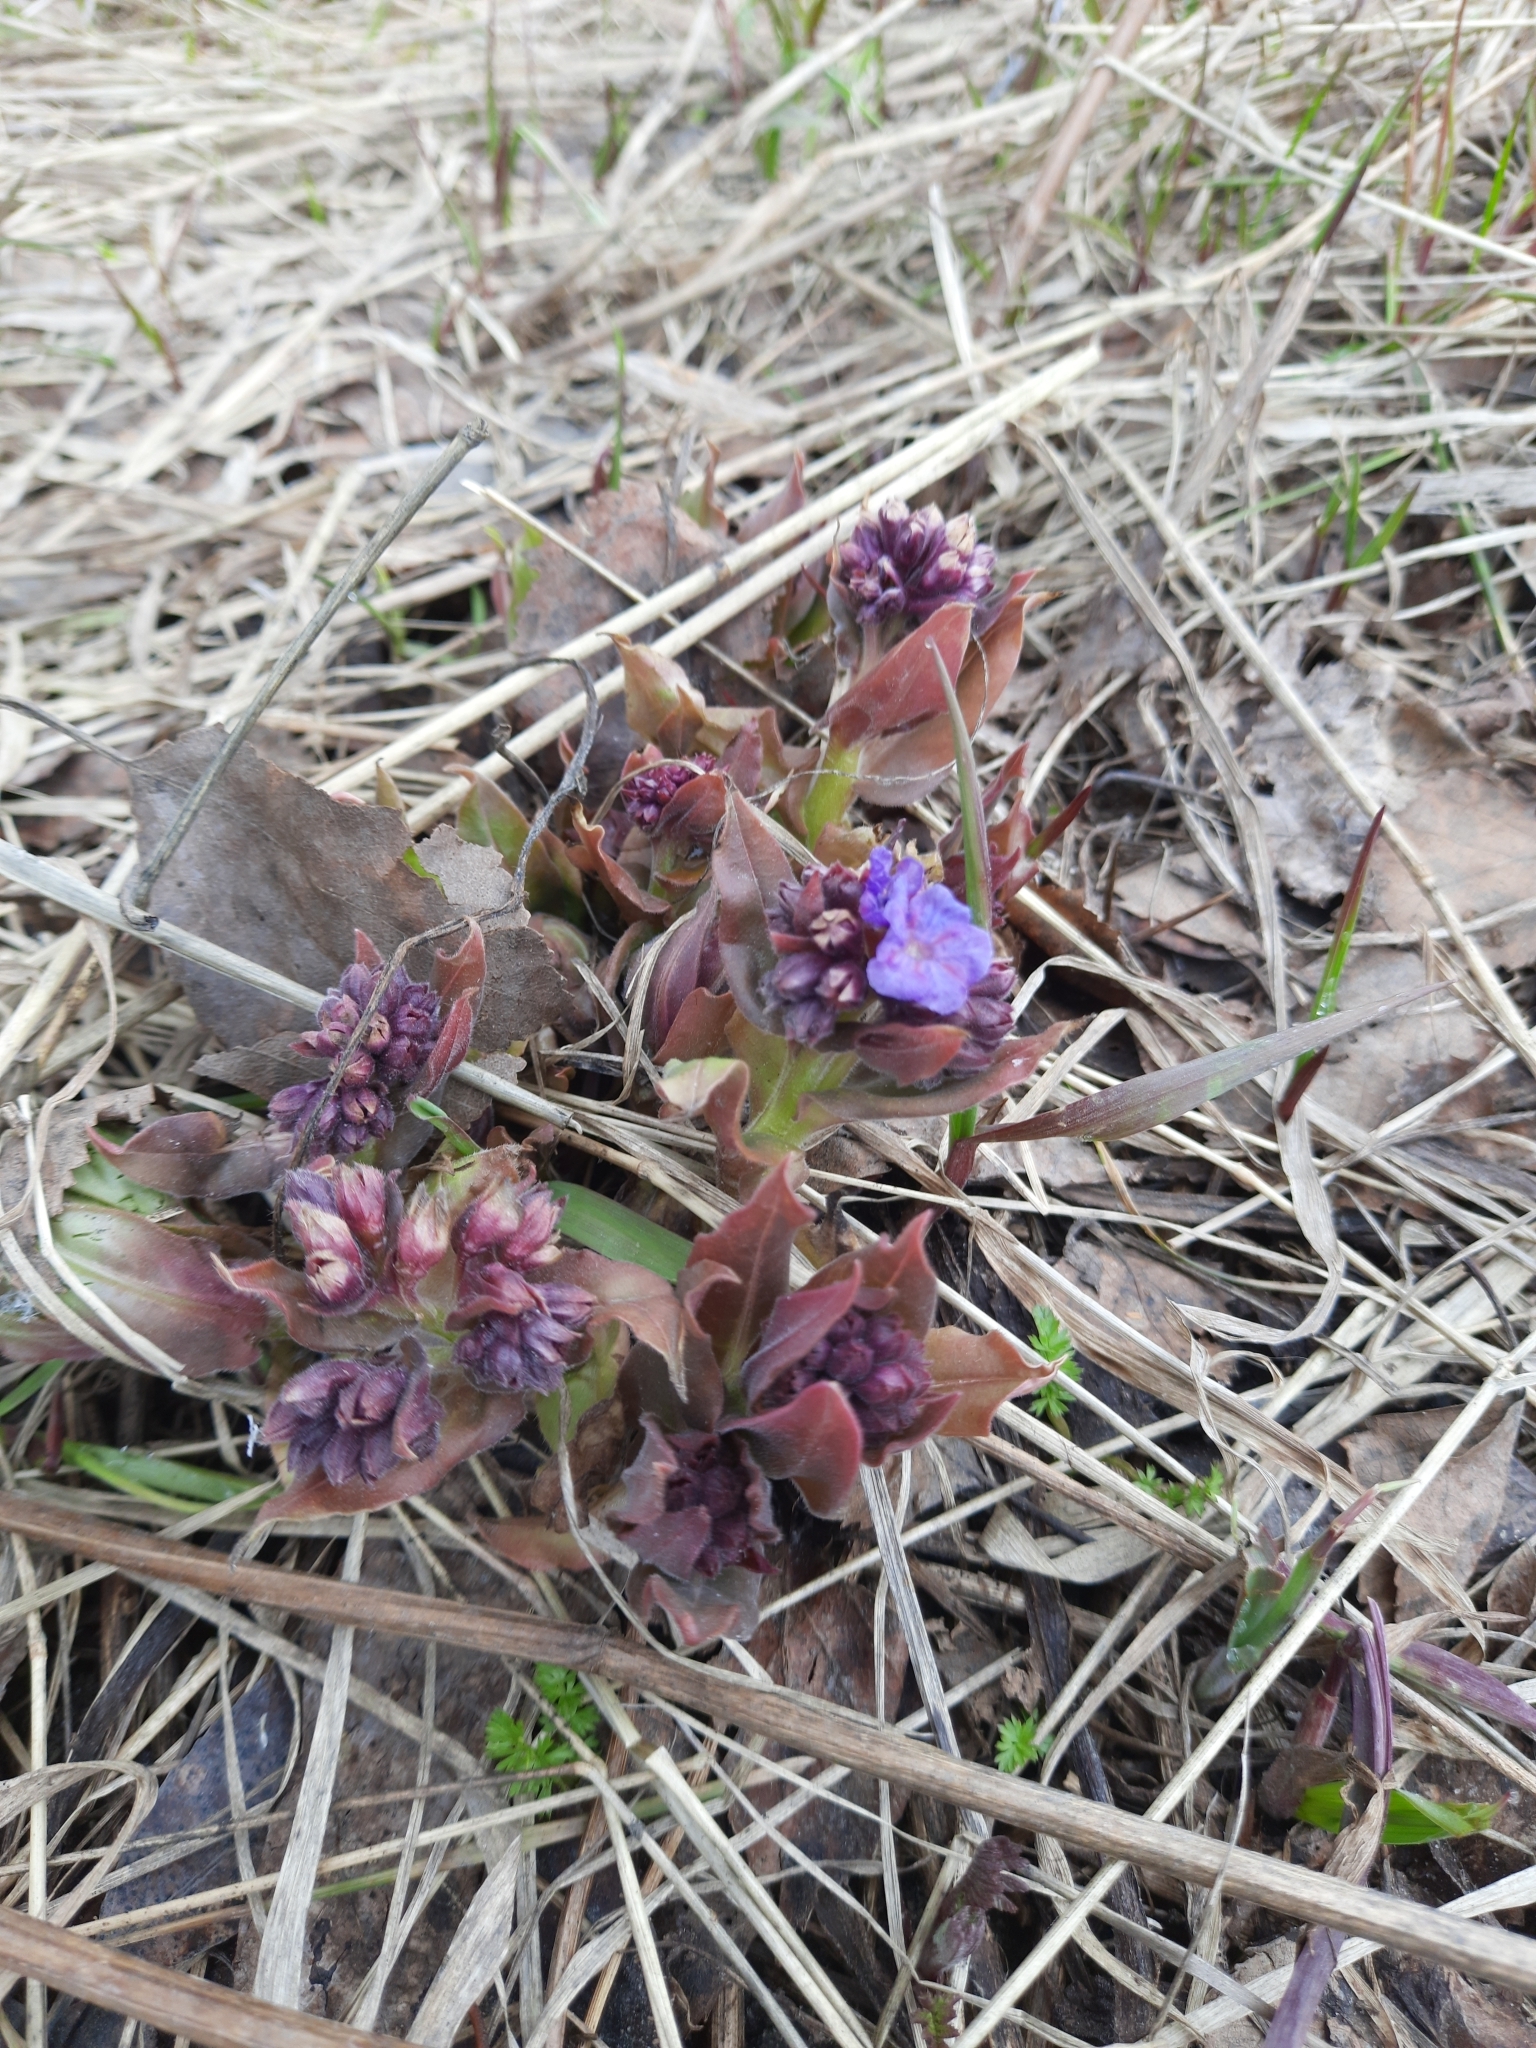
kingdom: Plantae
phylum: Tracheophyta
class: Magnoliopsida
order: Boraginales
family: Boraginaceae
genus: Pulmonaria
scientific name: Pulmonaria mollis
